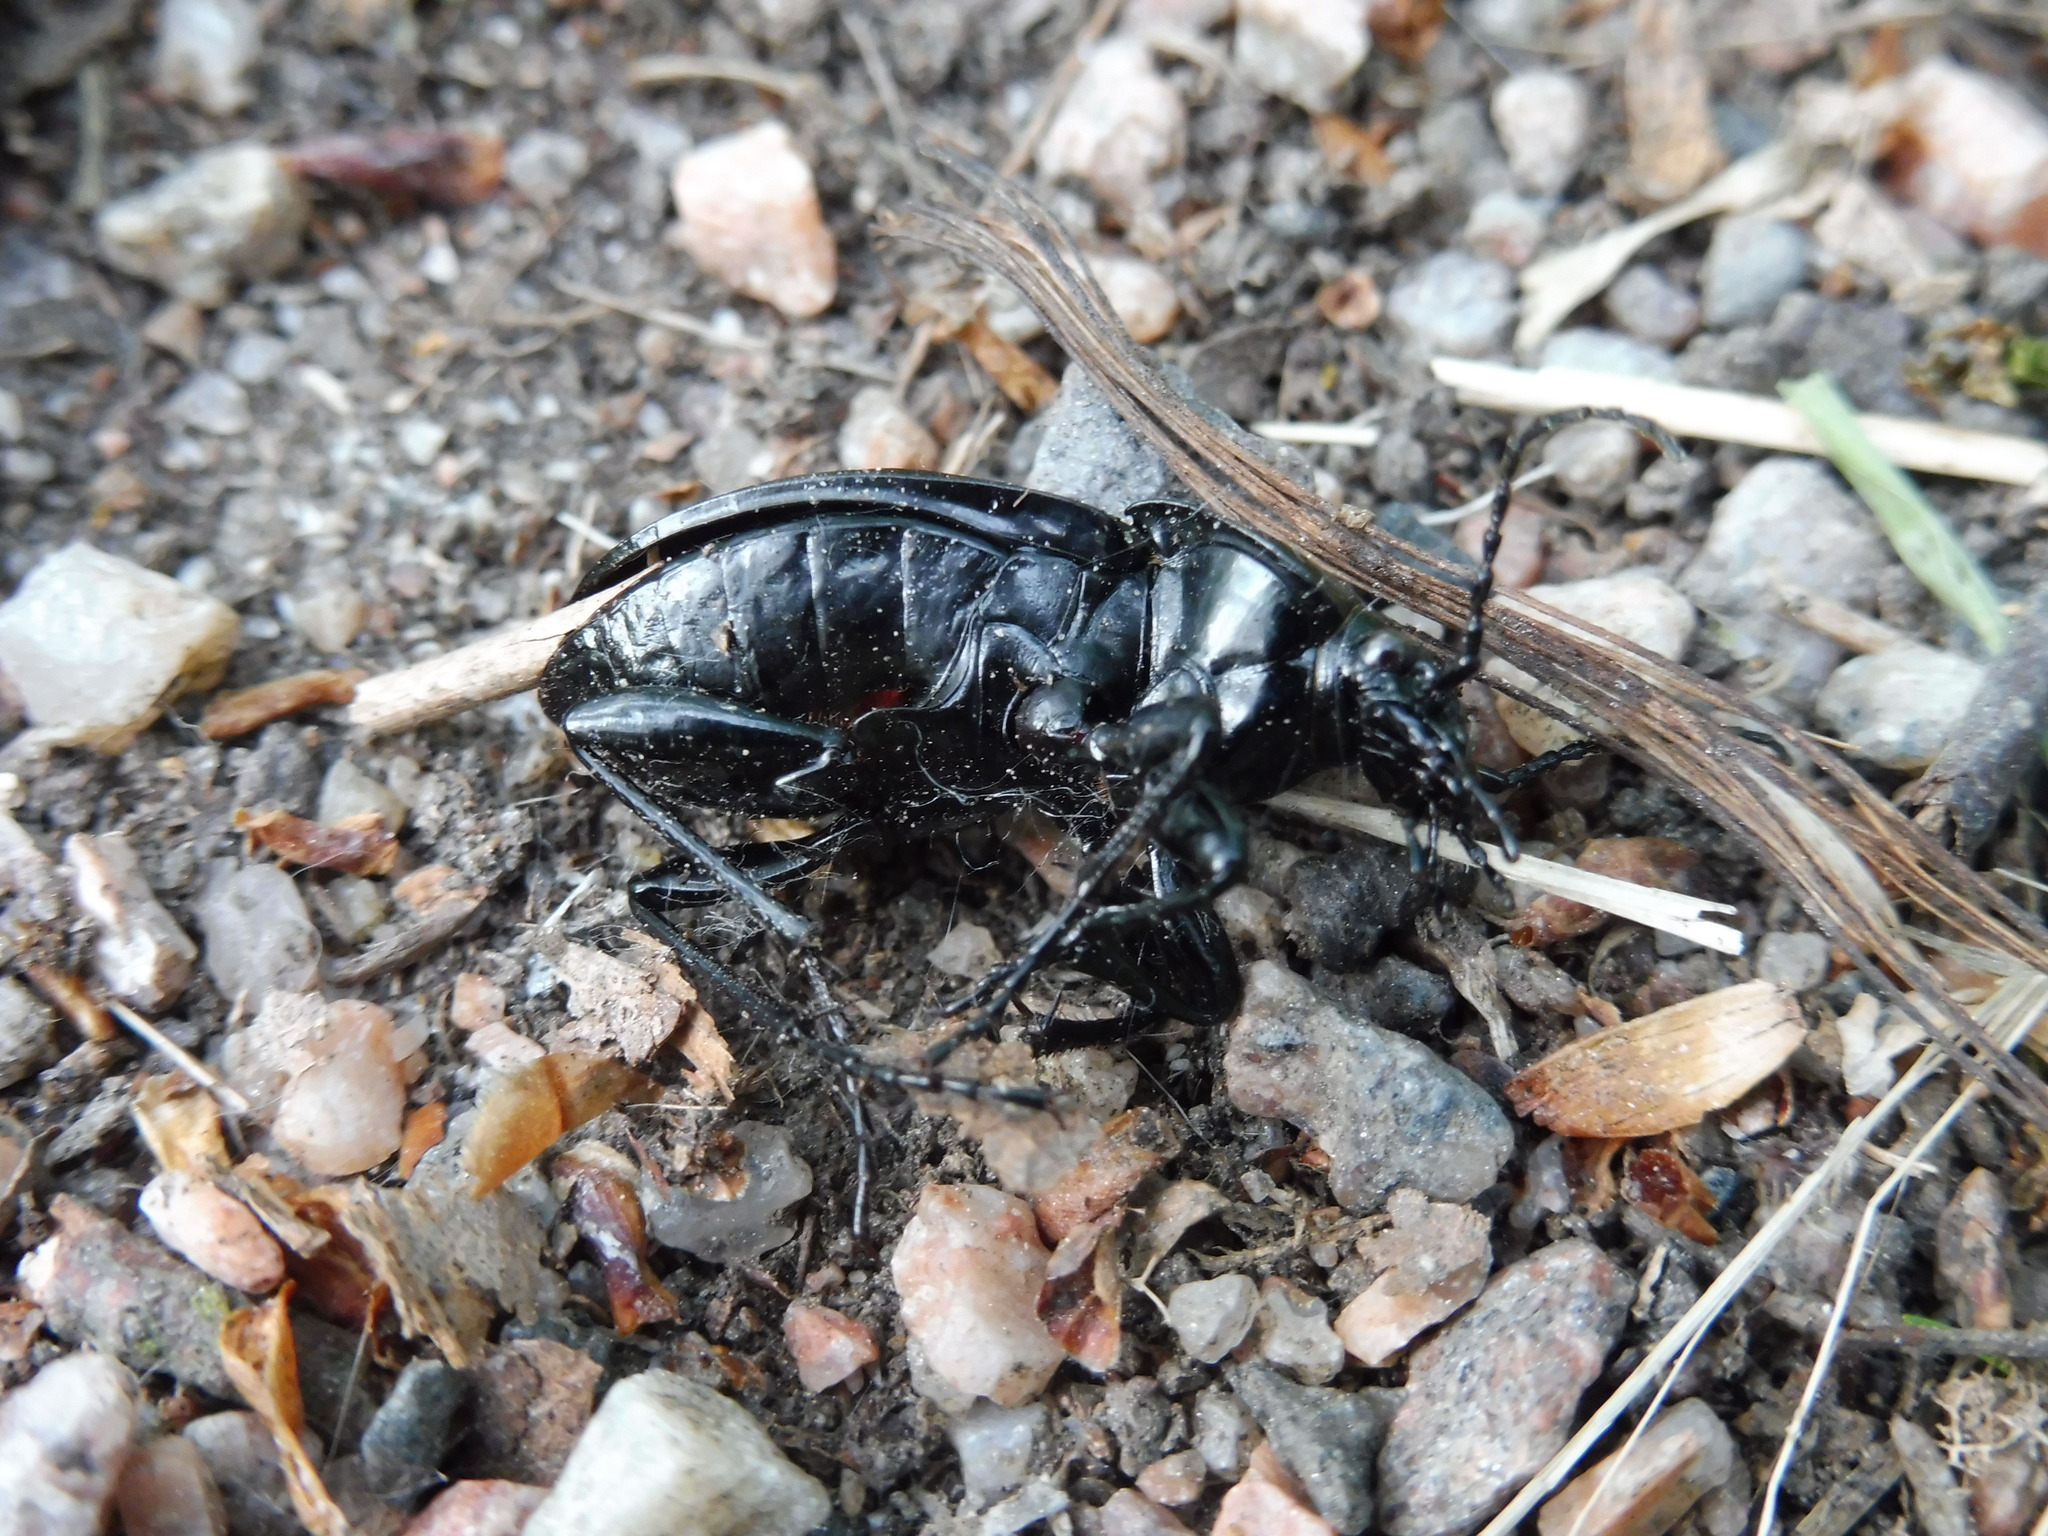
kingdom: Animalia
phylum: Arthropoda
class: Insecta
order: Coleoptera
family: Carabidae
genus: Carabus
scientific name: Carabus nemoralis
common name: European ground beetle
